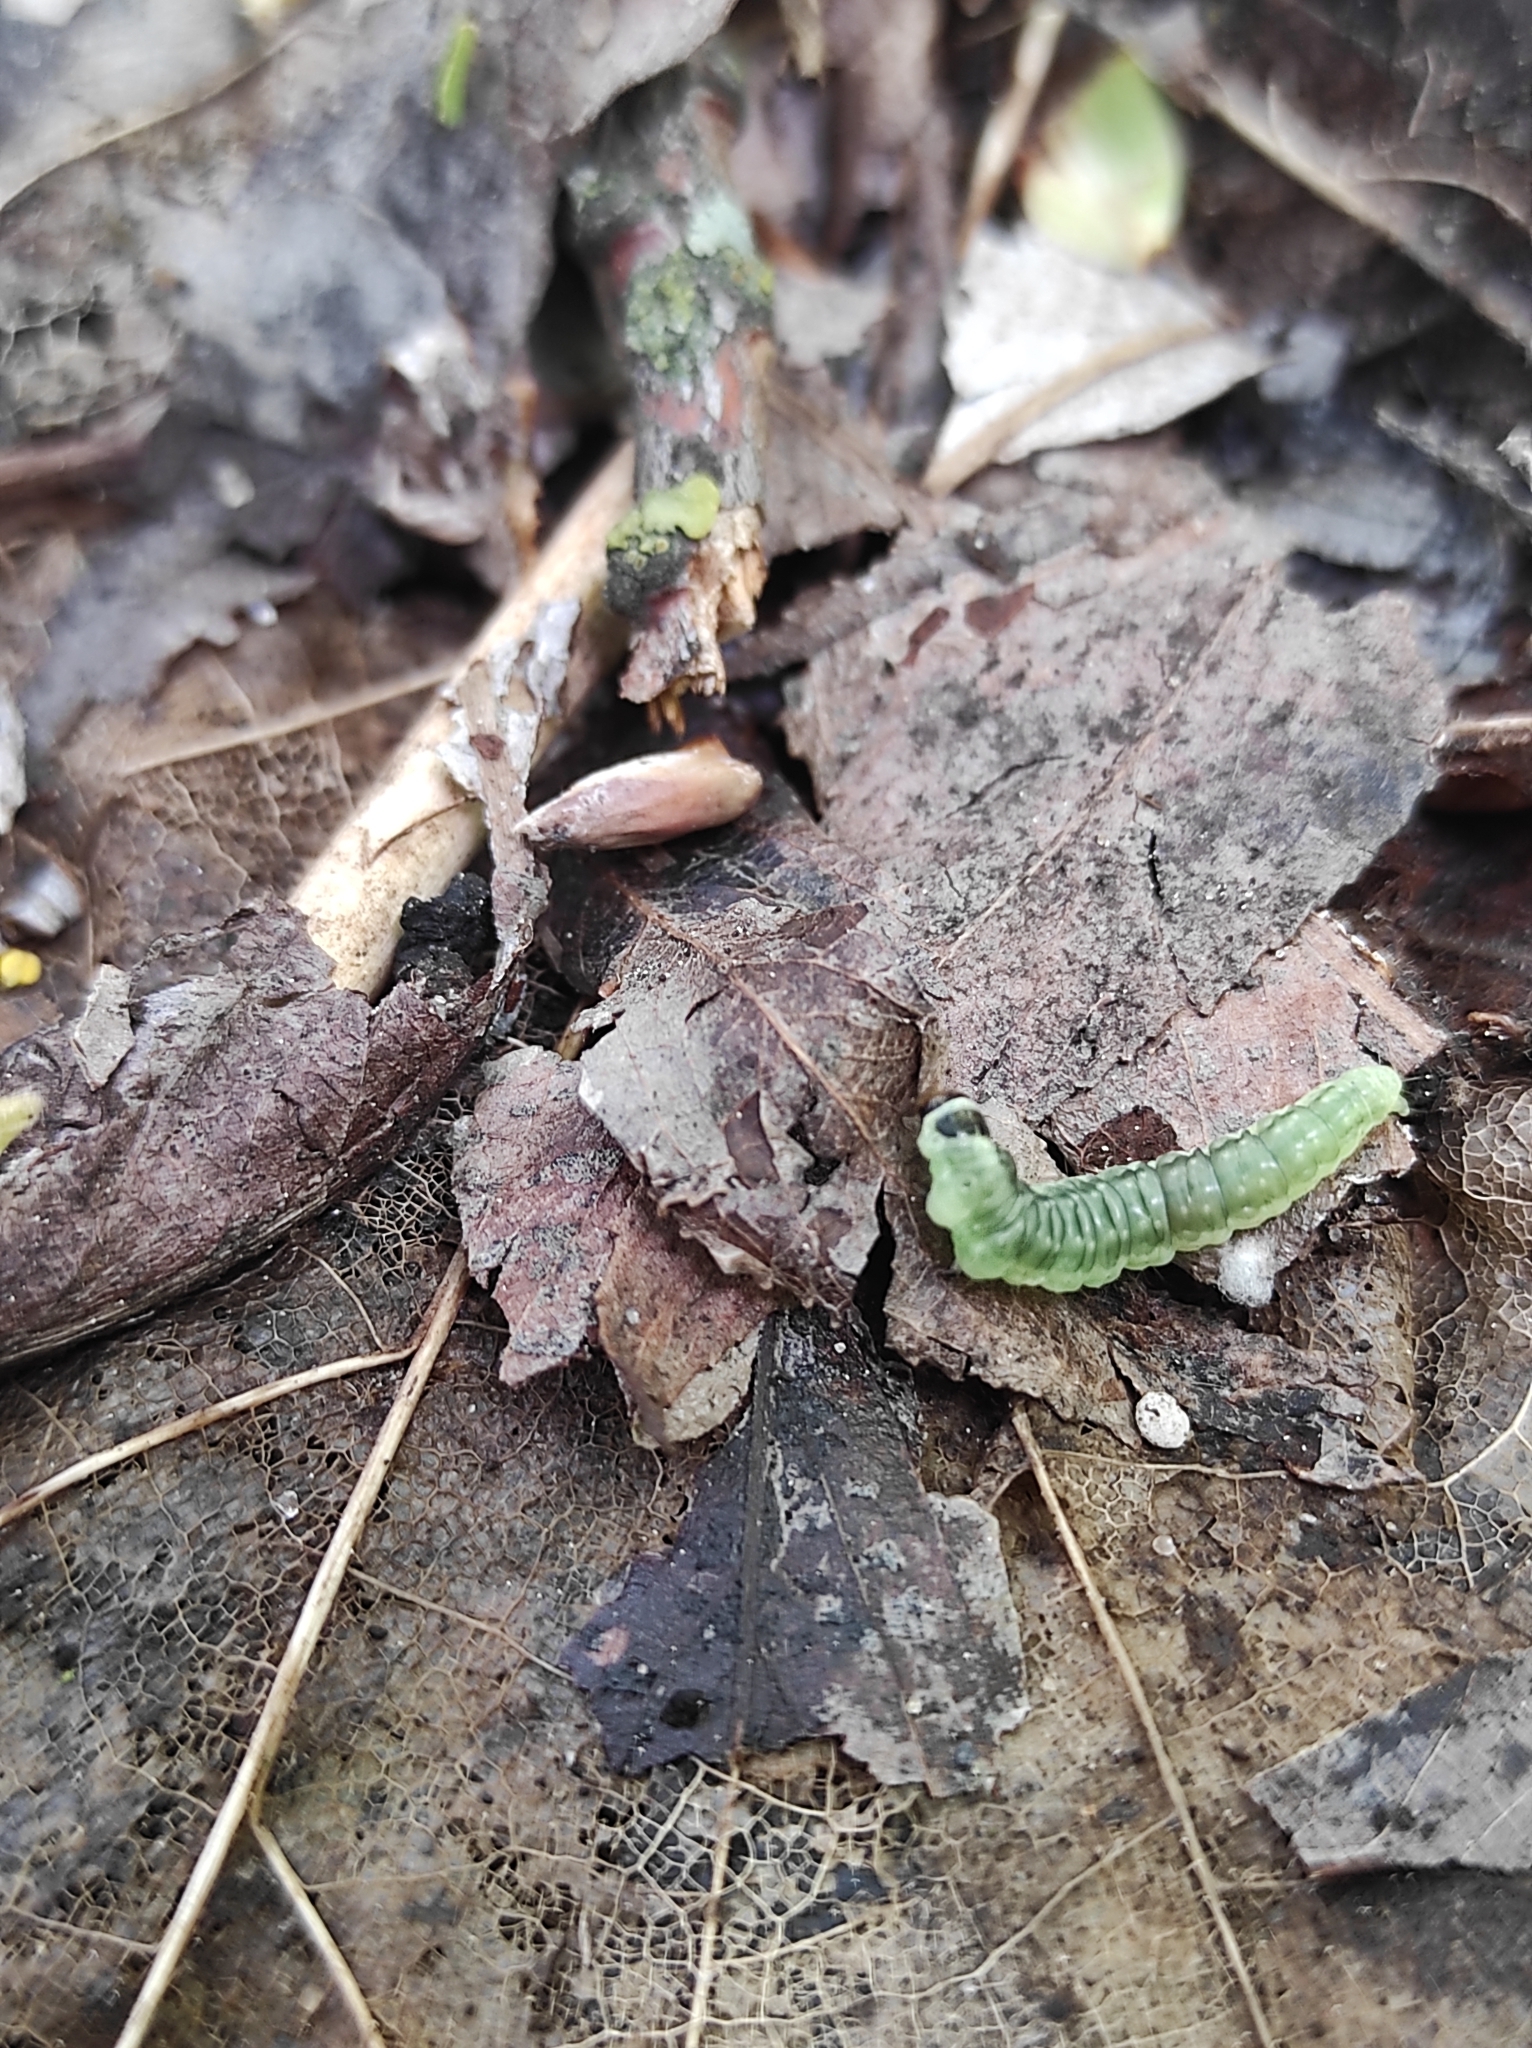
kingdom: Animalia
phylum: Arthropoda
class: Insecta
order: Lepidoptera
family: Tortricidae
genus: Ptycholoma
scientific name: Ptycholoma lecheana
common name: Leches twist moth
